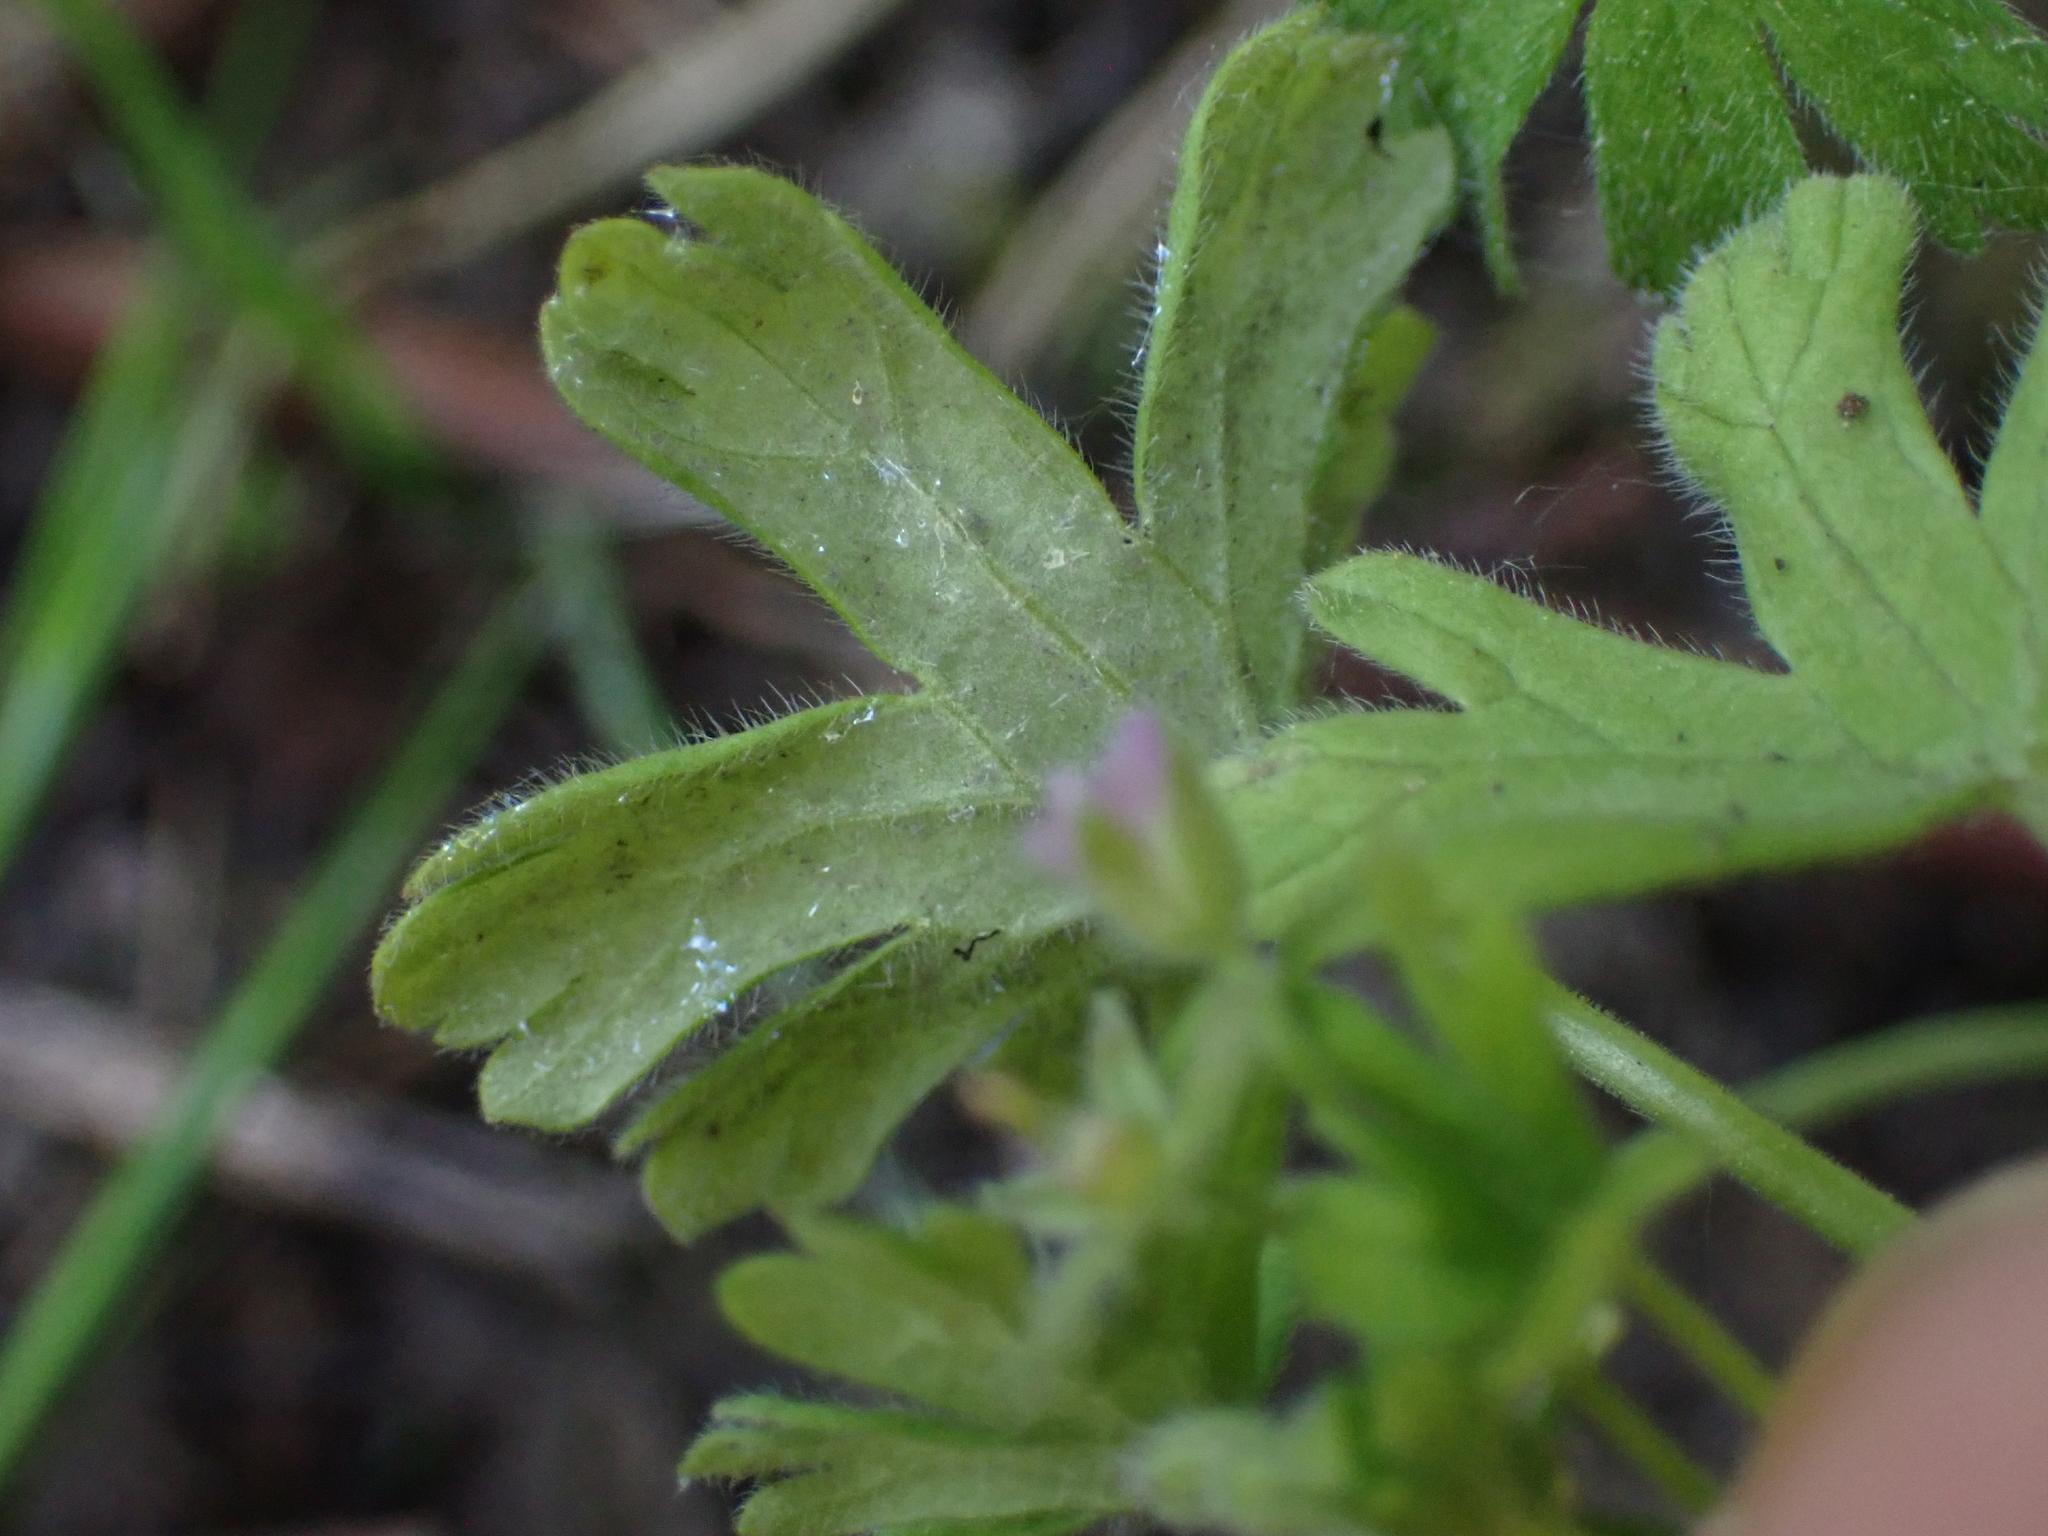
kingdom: Chromista
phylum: Oomycota
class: Peronosporea
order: Peronosporales
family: Peronosporaceae
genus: Peronospora
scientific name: Peronospora conglomerata
